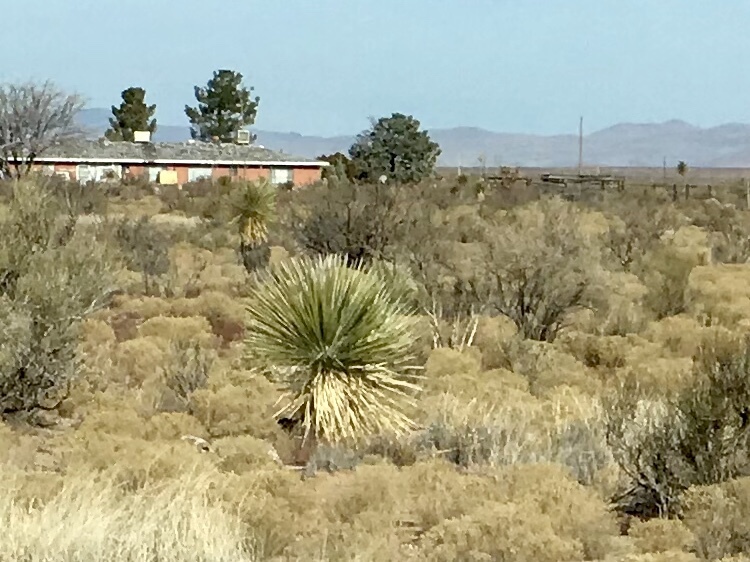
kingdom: Plantae
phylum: Tracheophyta
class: Liliopsida
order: Asparagales
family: Asparagaceae
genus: Yucca
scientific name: Yucca elata
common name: Palmella
